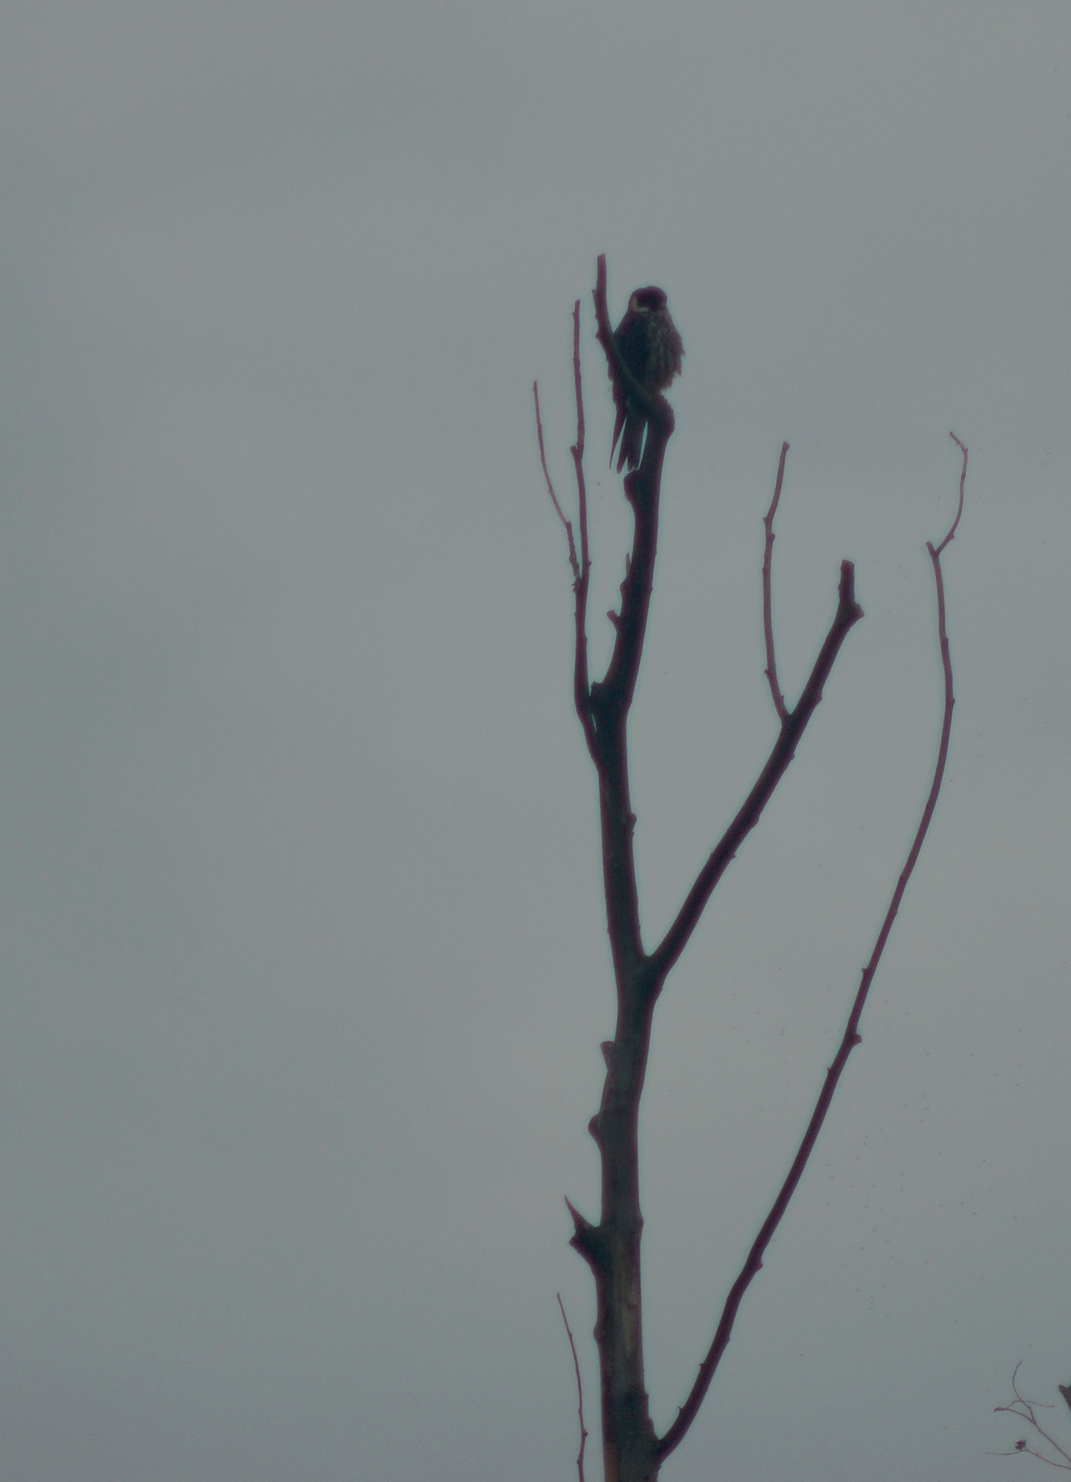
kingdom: Animalia
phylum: Chordata
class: Aves
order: Falconiformes
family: Falconidae
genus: Falco
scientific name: Falco subbuteo
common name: Eurasian hobby
